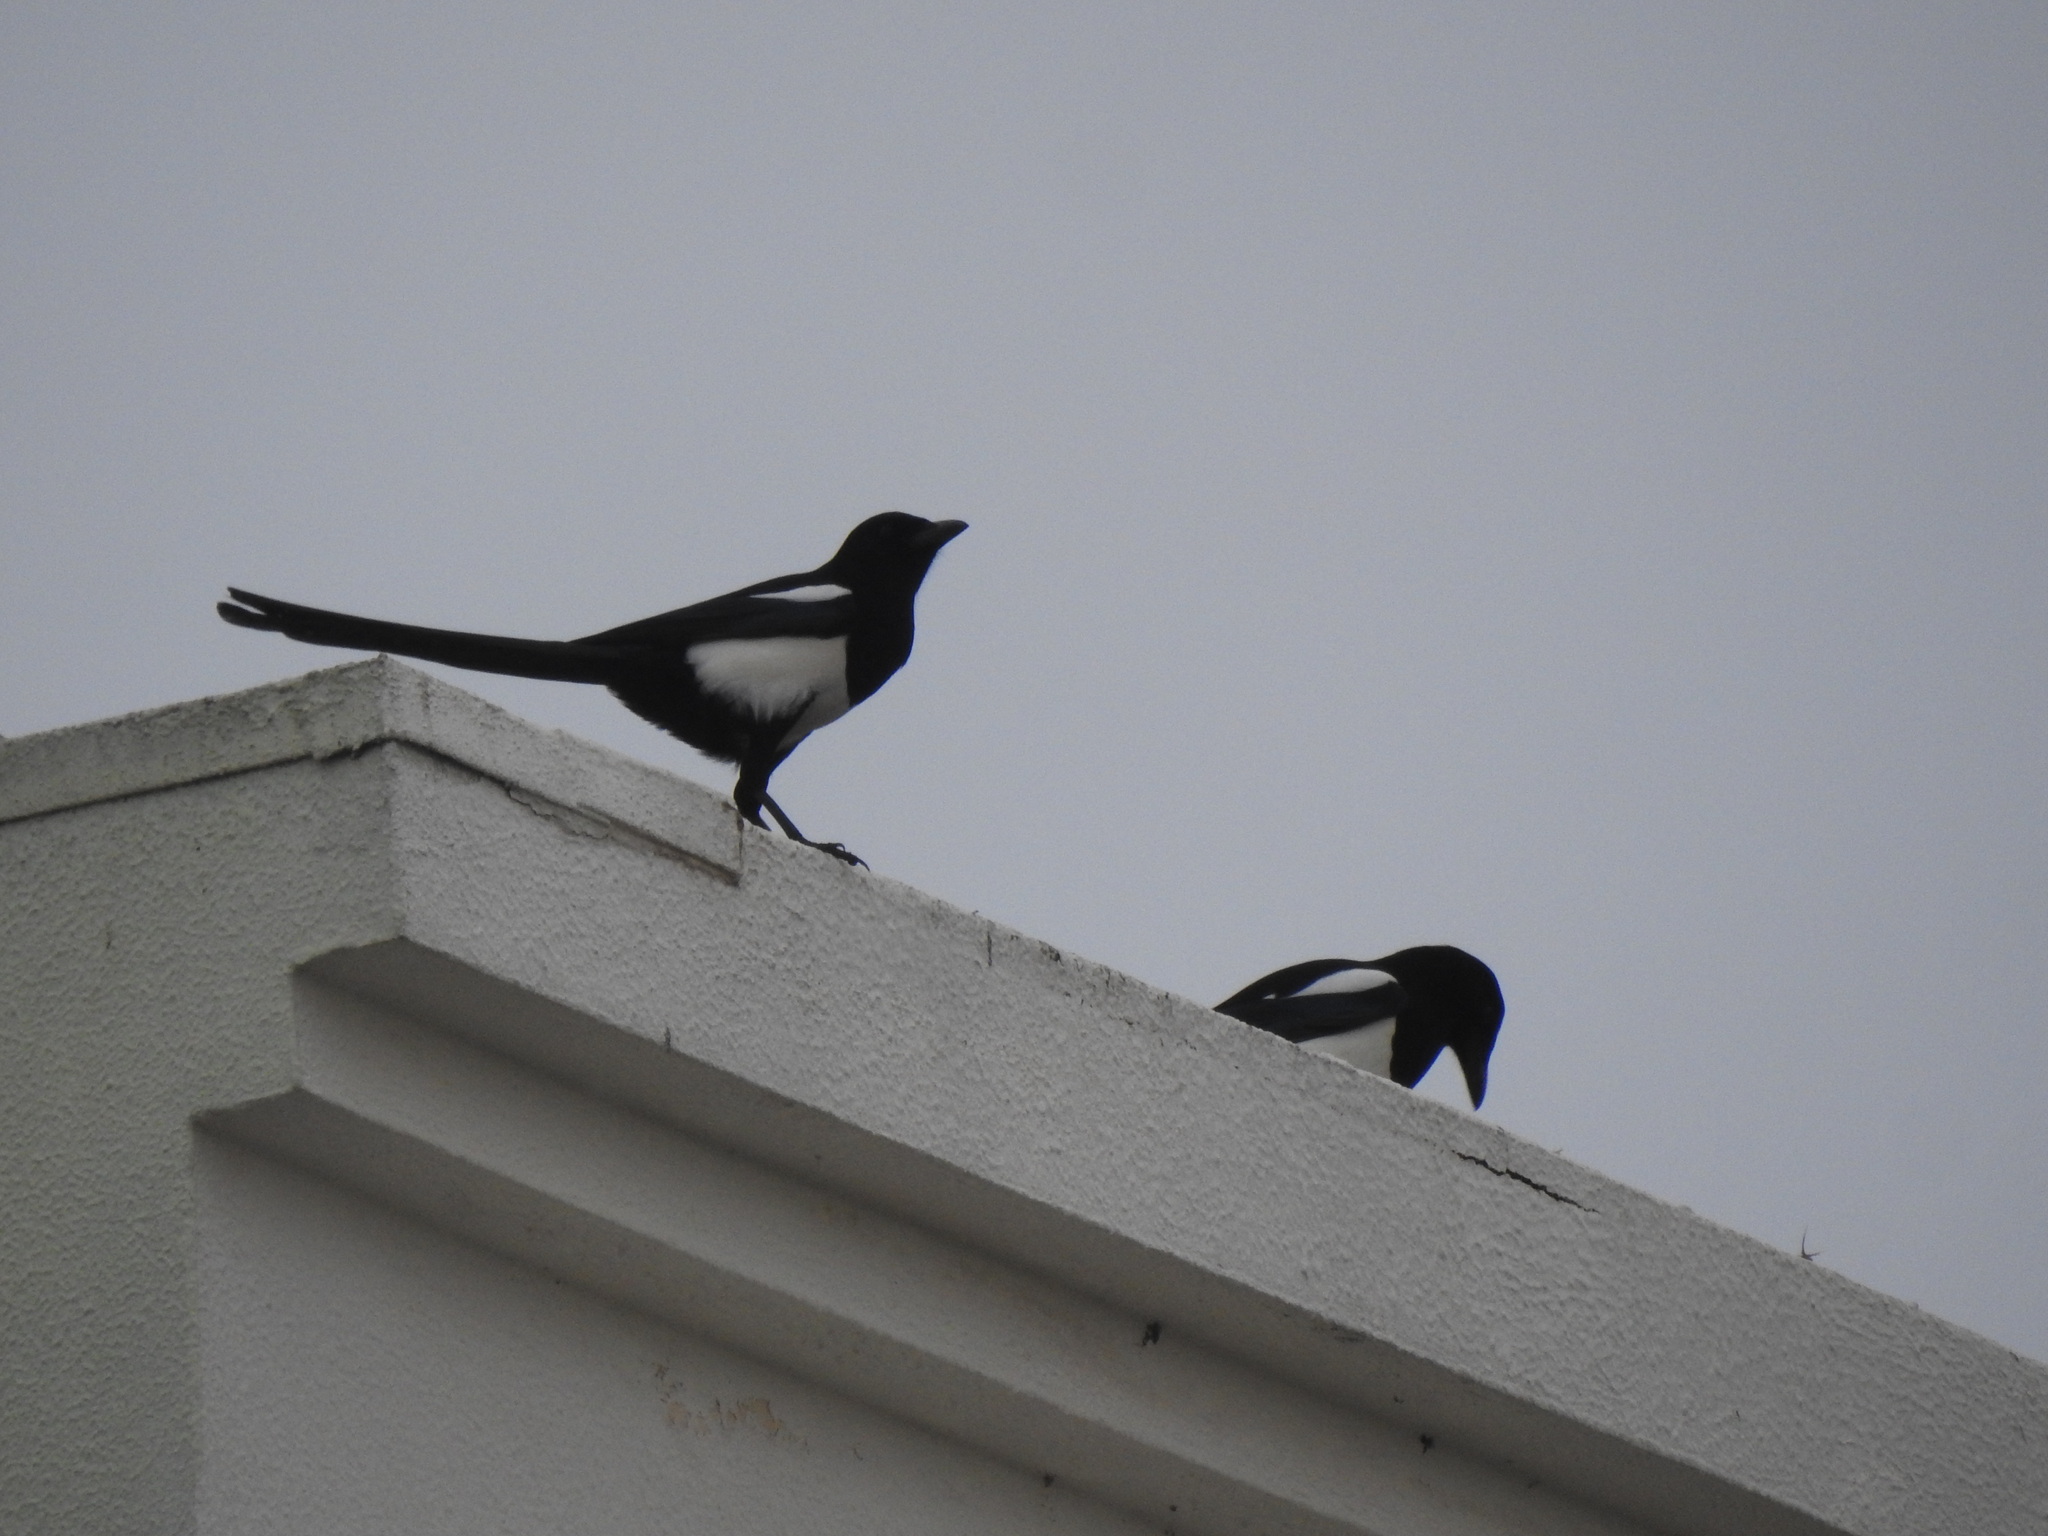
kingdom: Animalia
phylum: Chordata
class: Aves
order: Passeriformes
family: Corvidae
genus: Pica
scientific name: Pica pica
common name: Eurasian magpie
